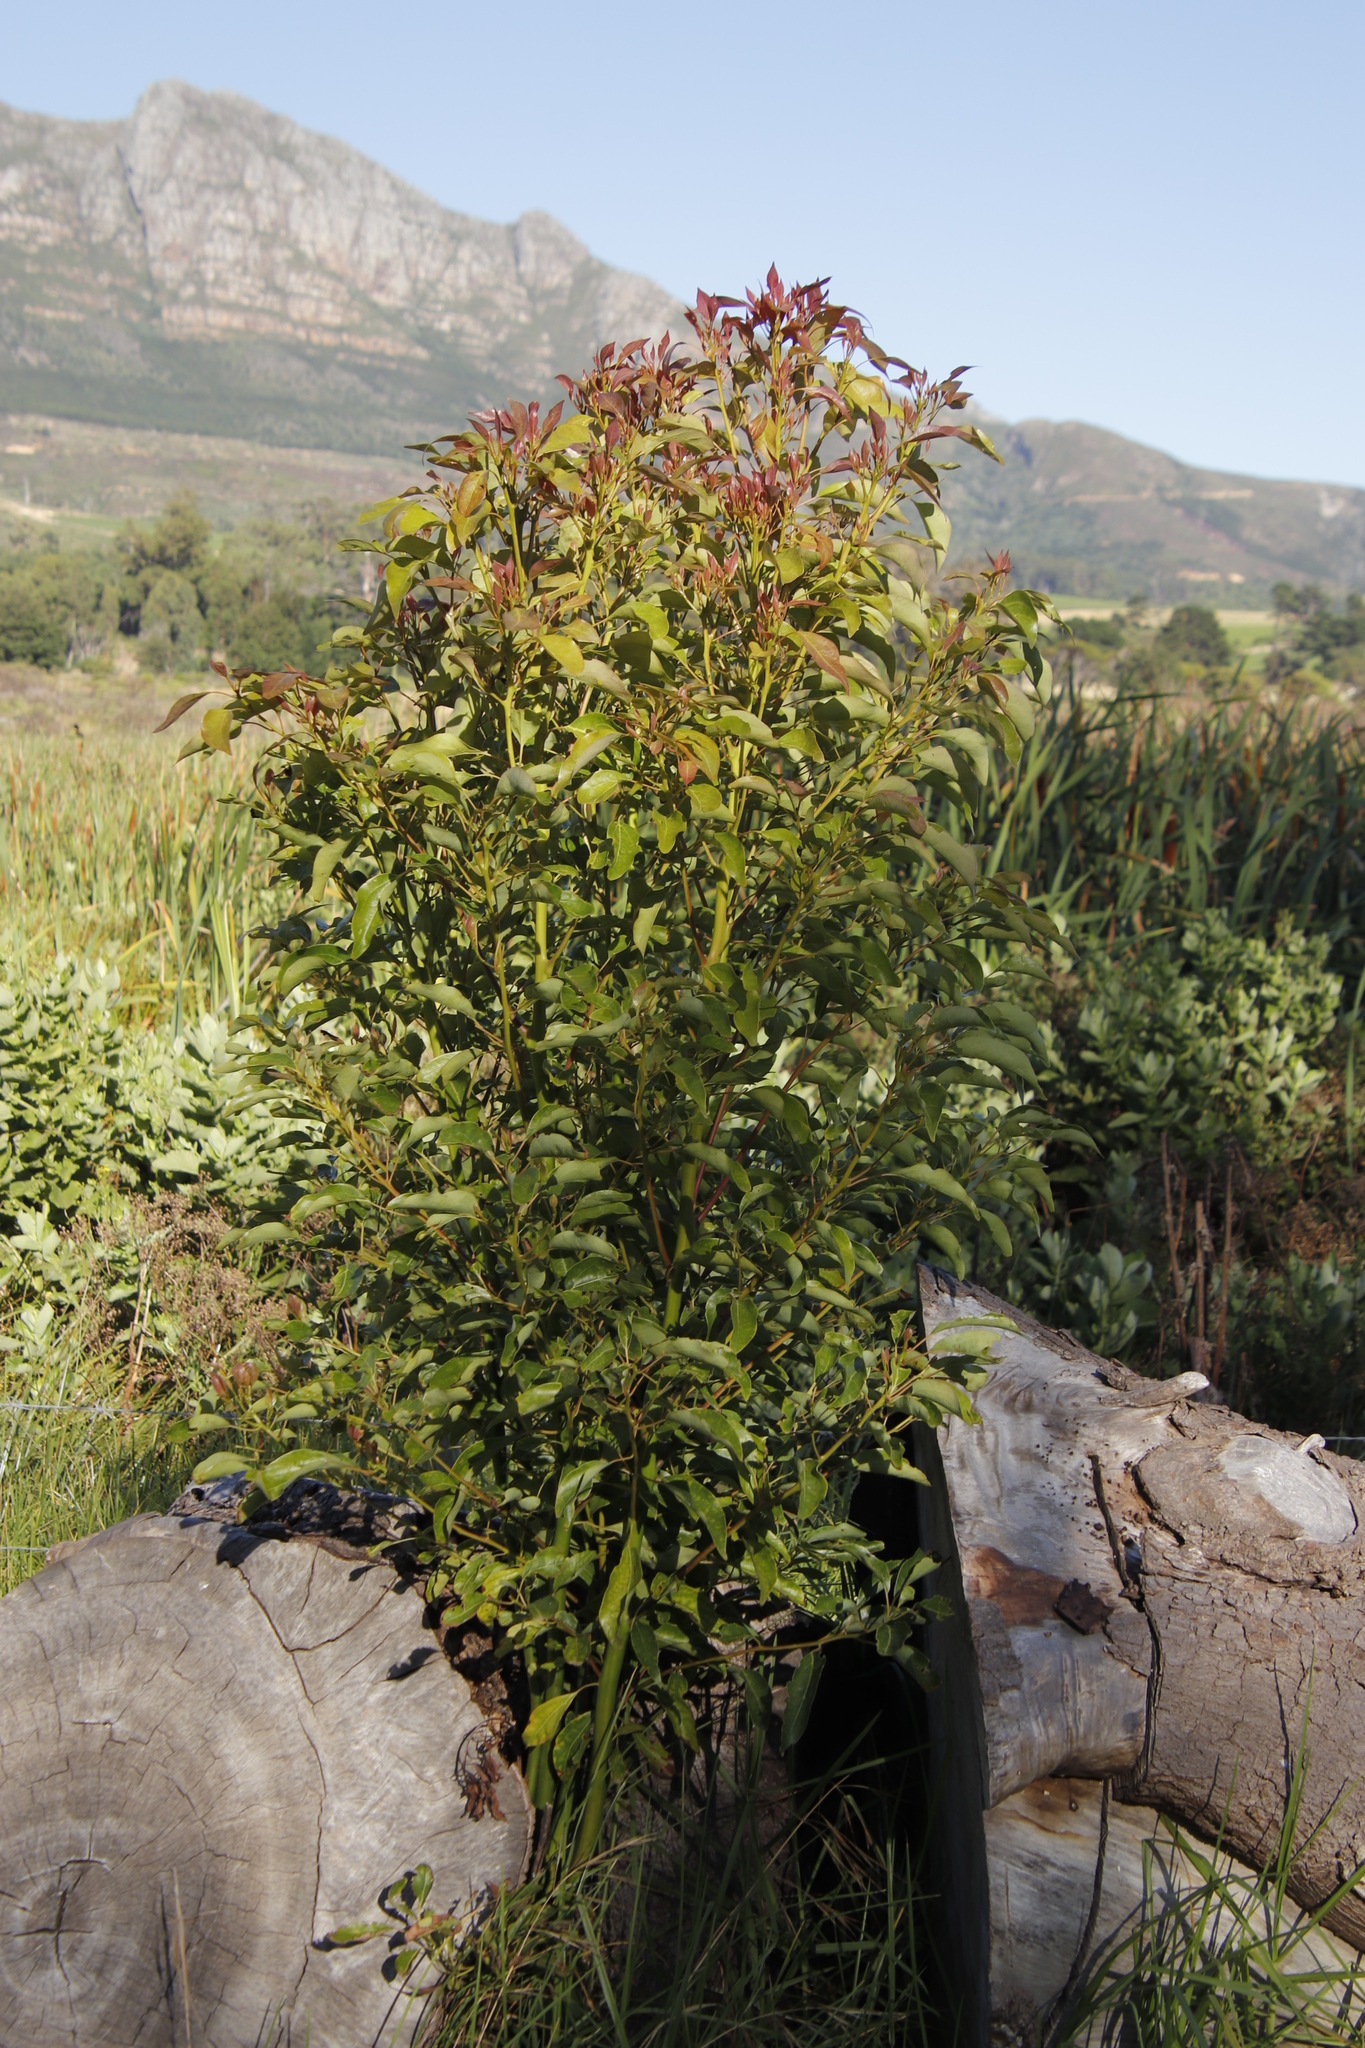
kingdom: Plantae
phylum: Tracheophyta
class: Magnoliopsida
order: Laurales
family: Lauraceae
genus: Cinnamomum
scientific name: Cinnamomum camphora
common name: Camphortree
